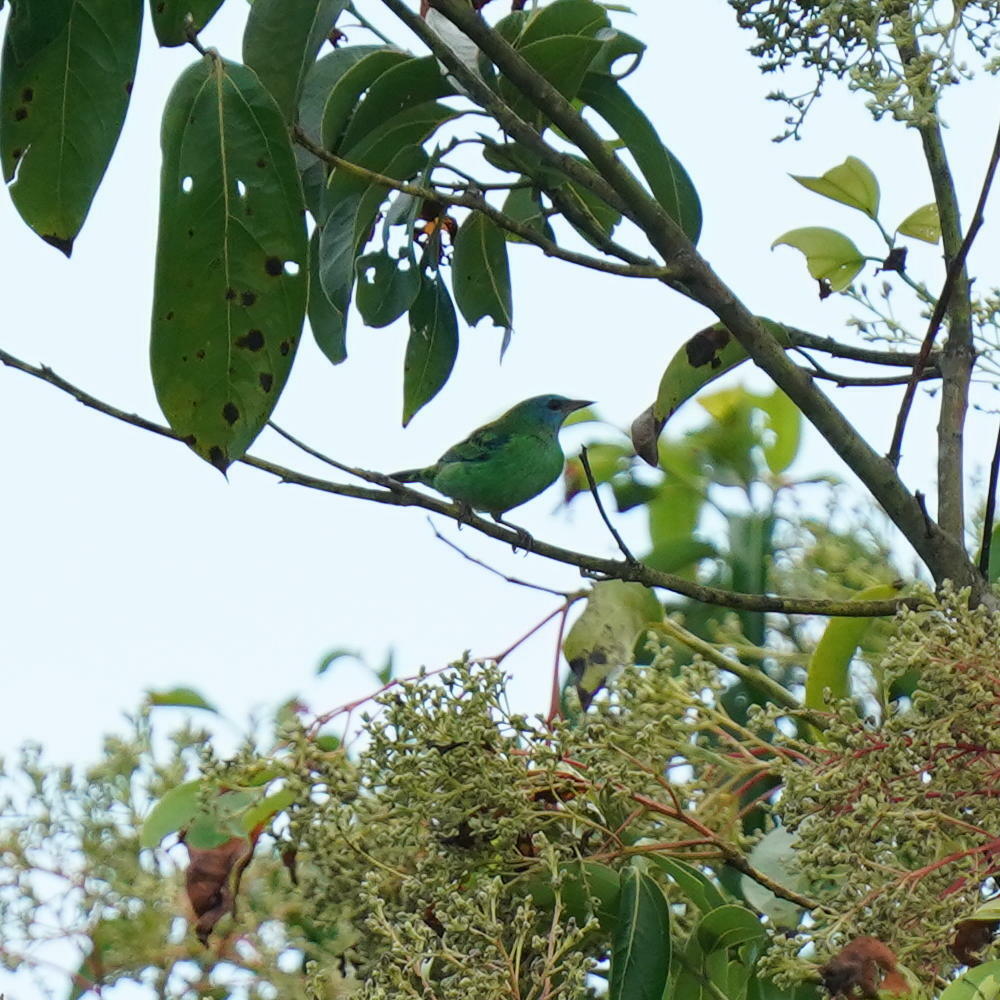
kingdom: Animalia
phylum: Chordata
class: Aves
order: Passeriformes
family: Thraupidae
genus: Dacnis
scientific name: Dacnis cayana
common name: Blue dacnis
